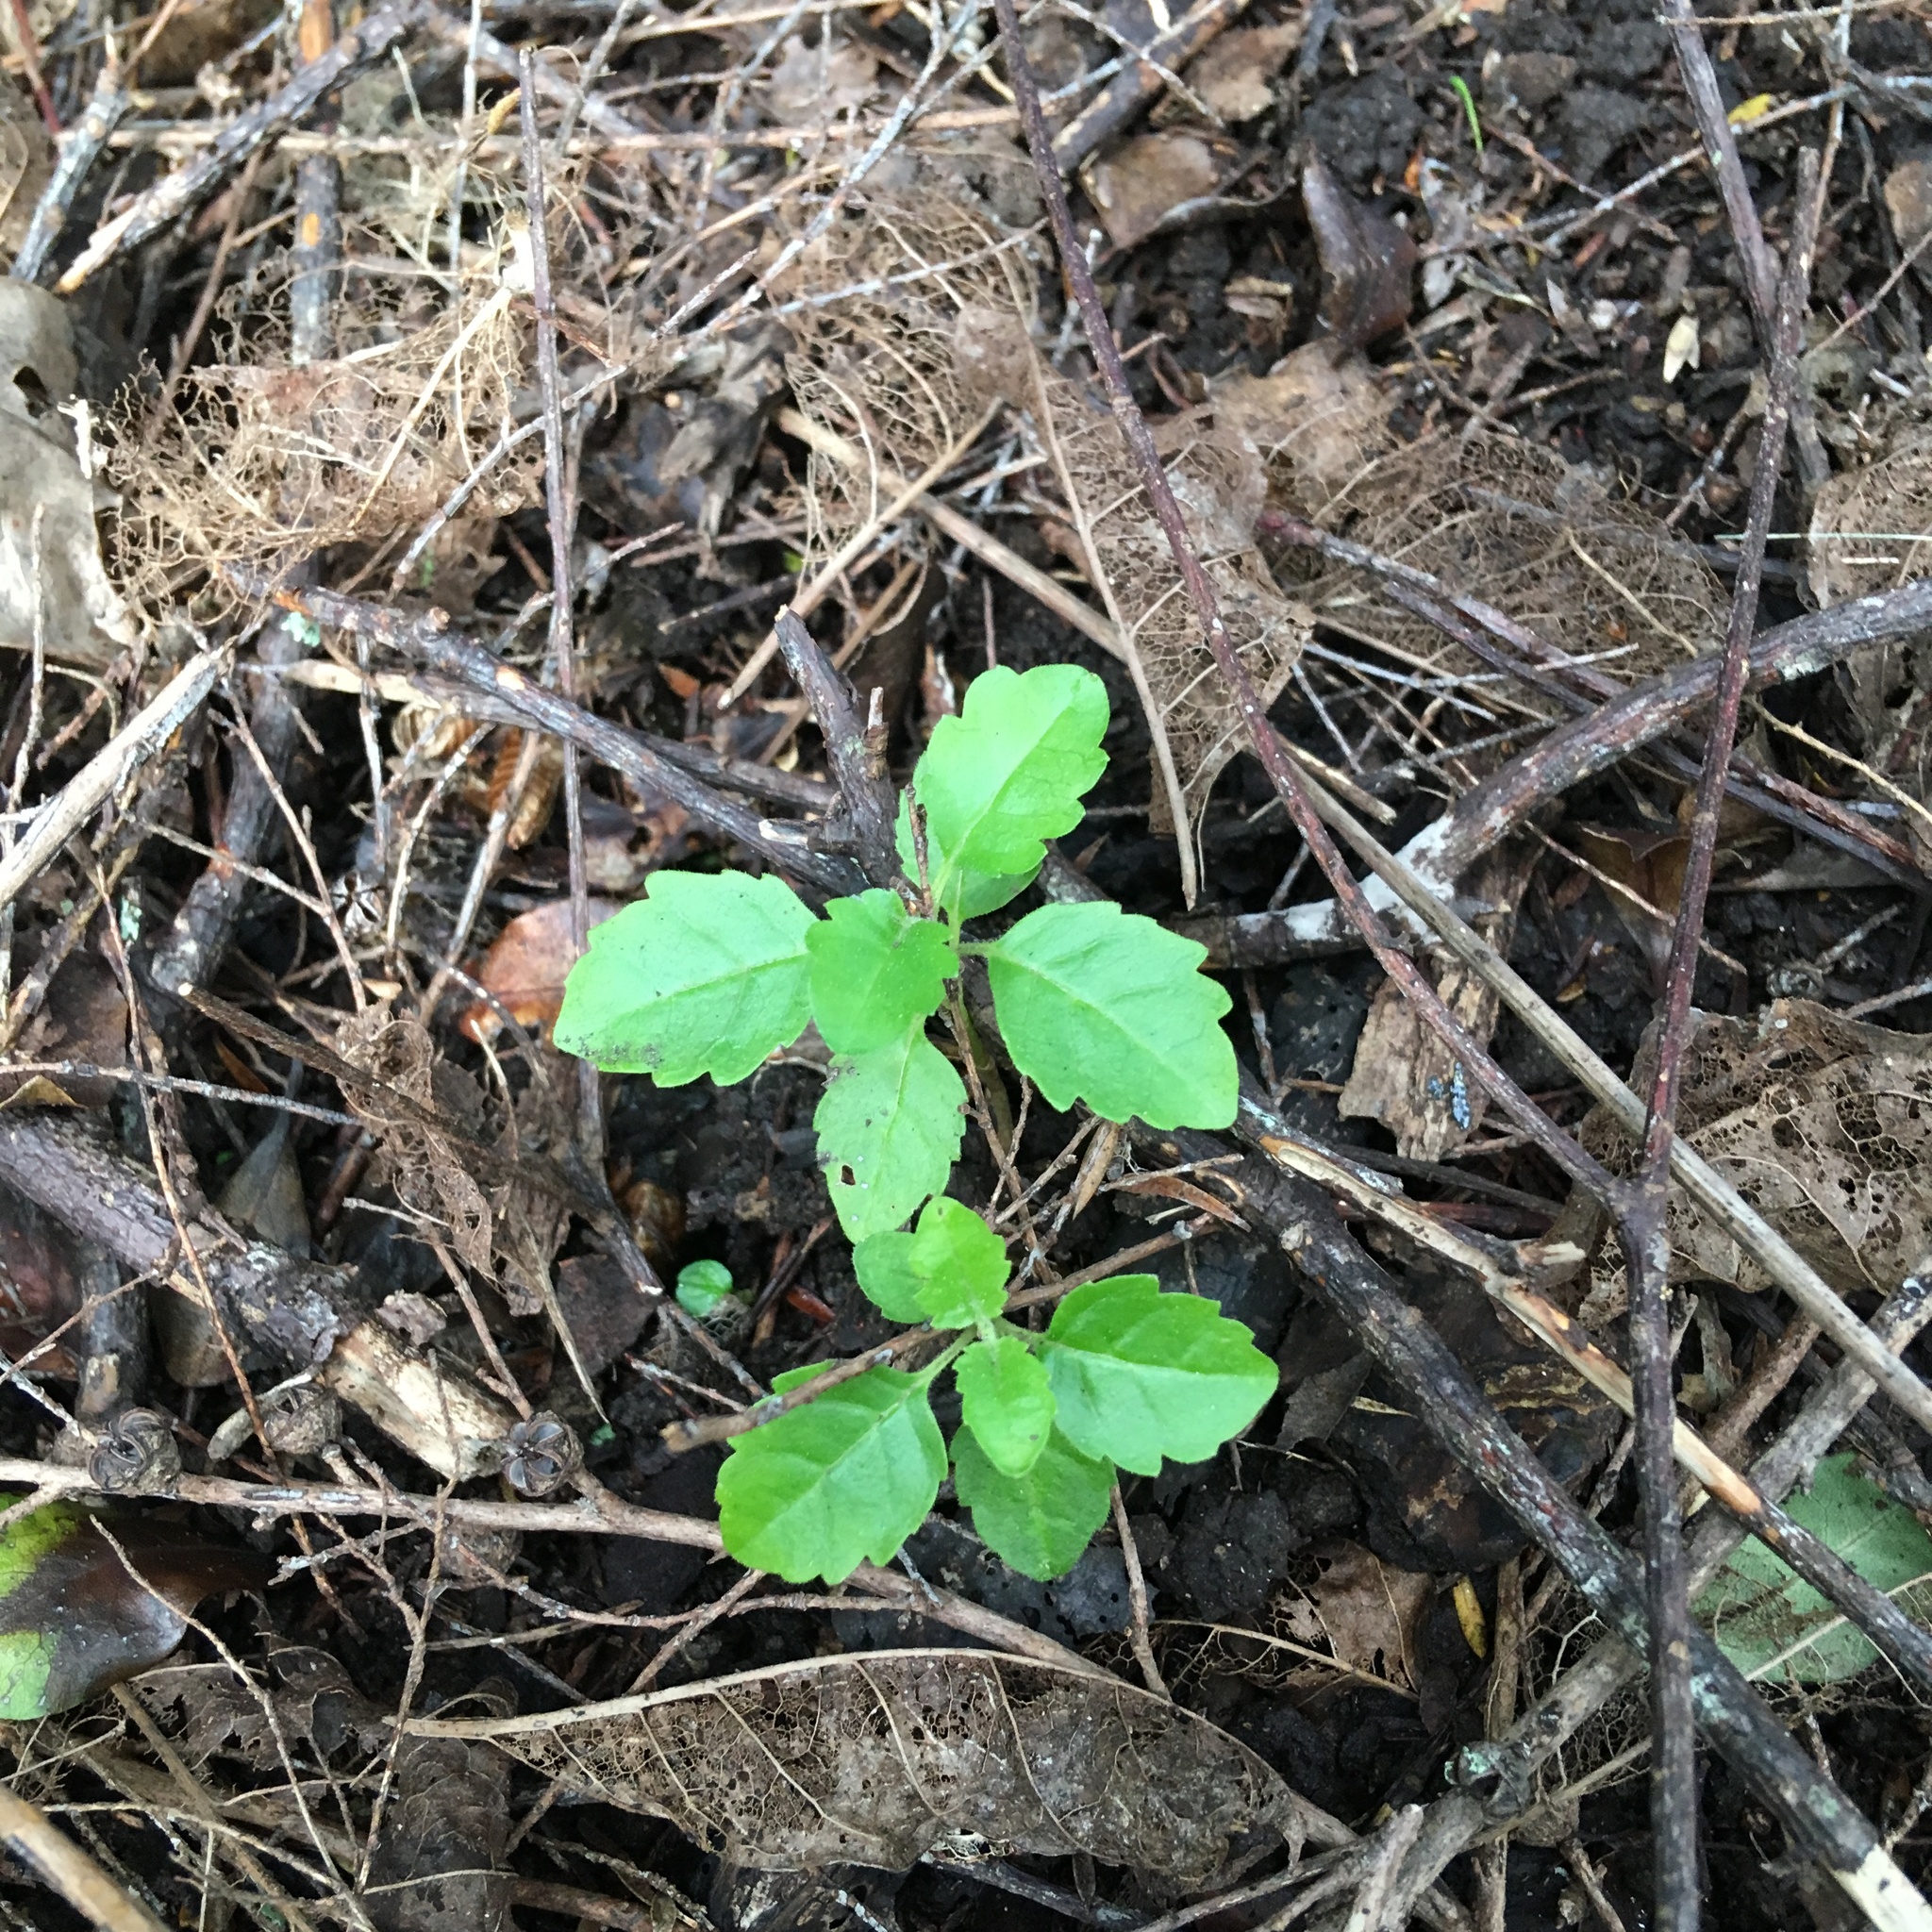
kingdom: Plantae
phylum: Tracheophyta
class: Magnoliopsida
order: Lamiales
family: Lamiaceae
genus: Vitex
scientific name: Vitex lucens
